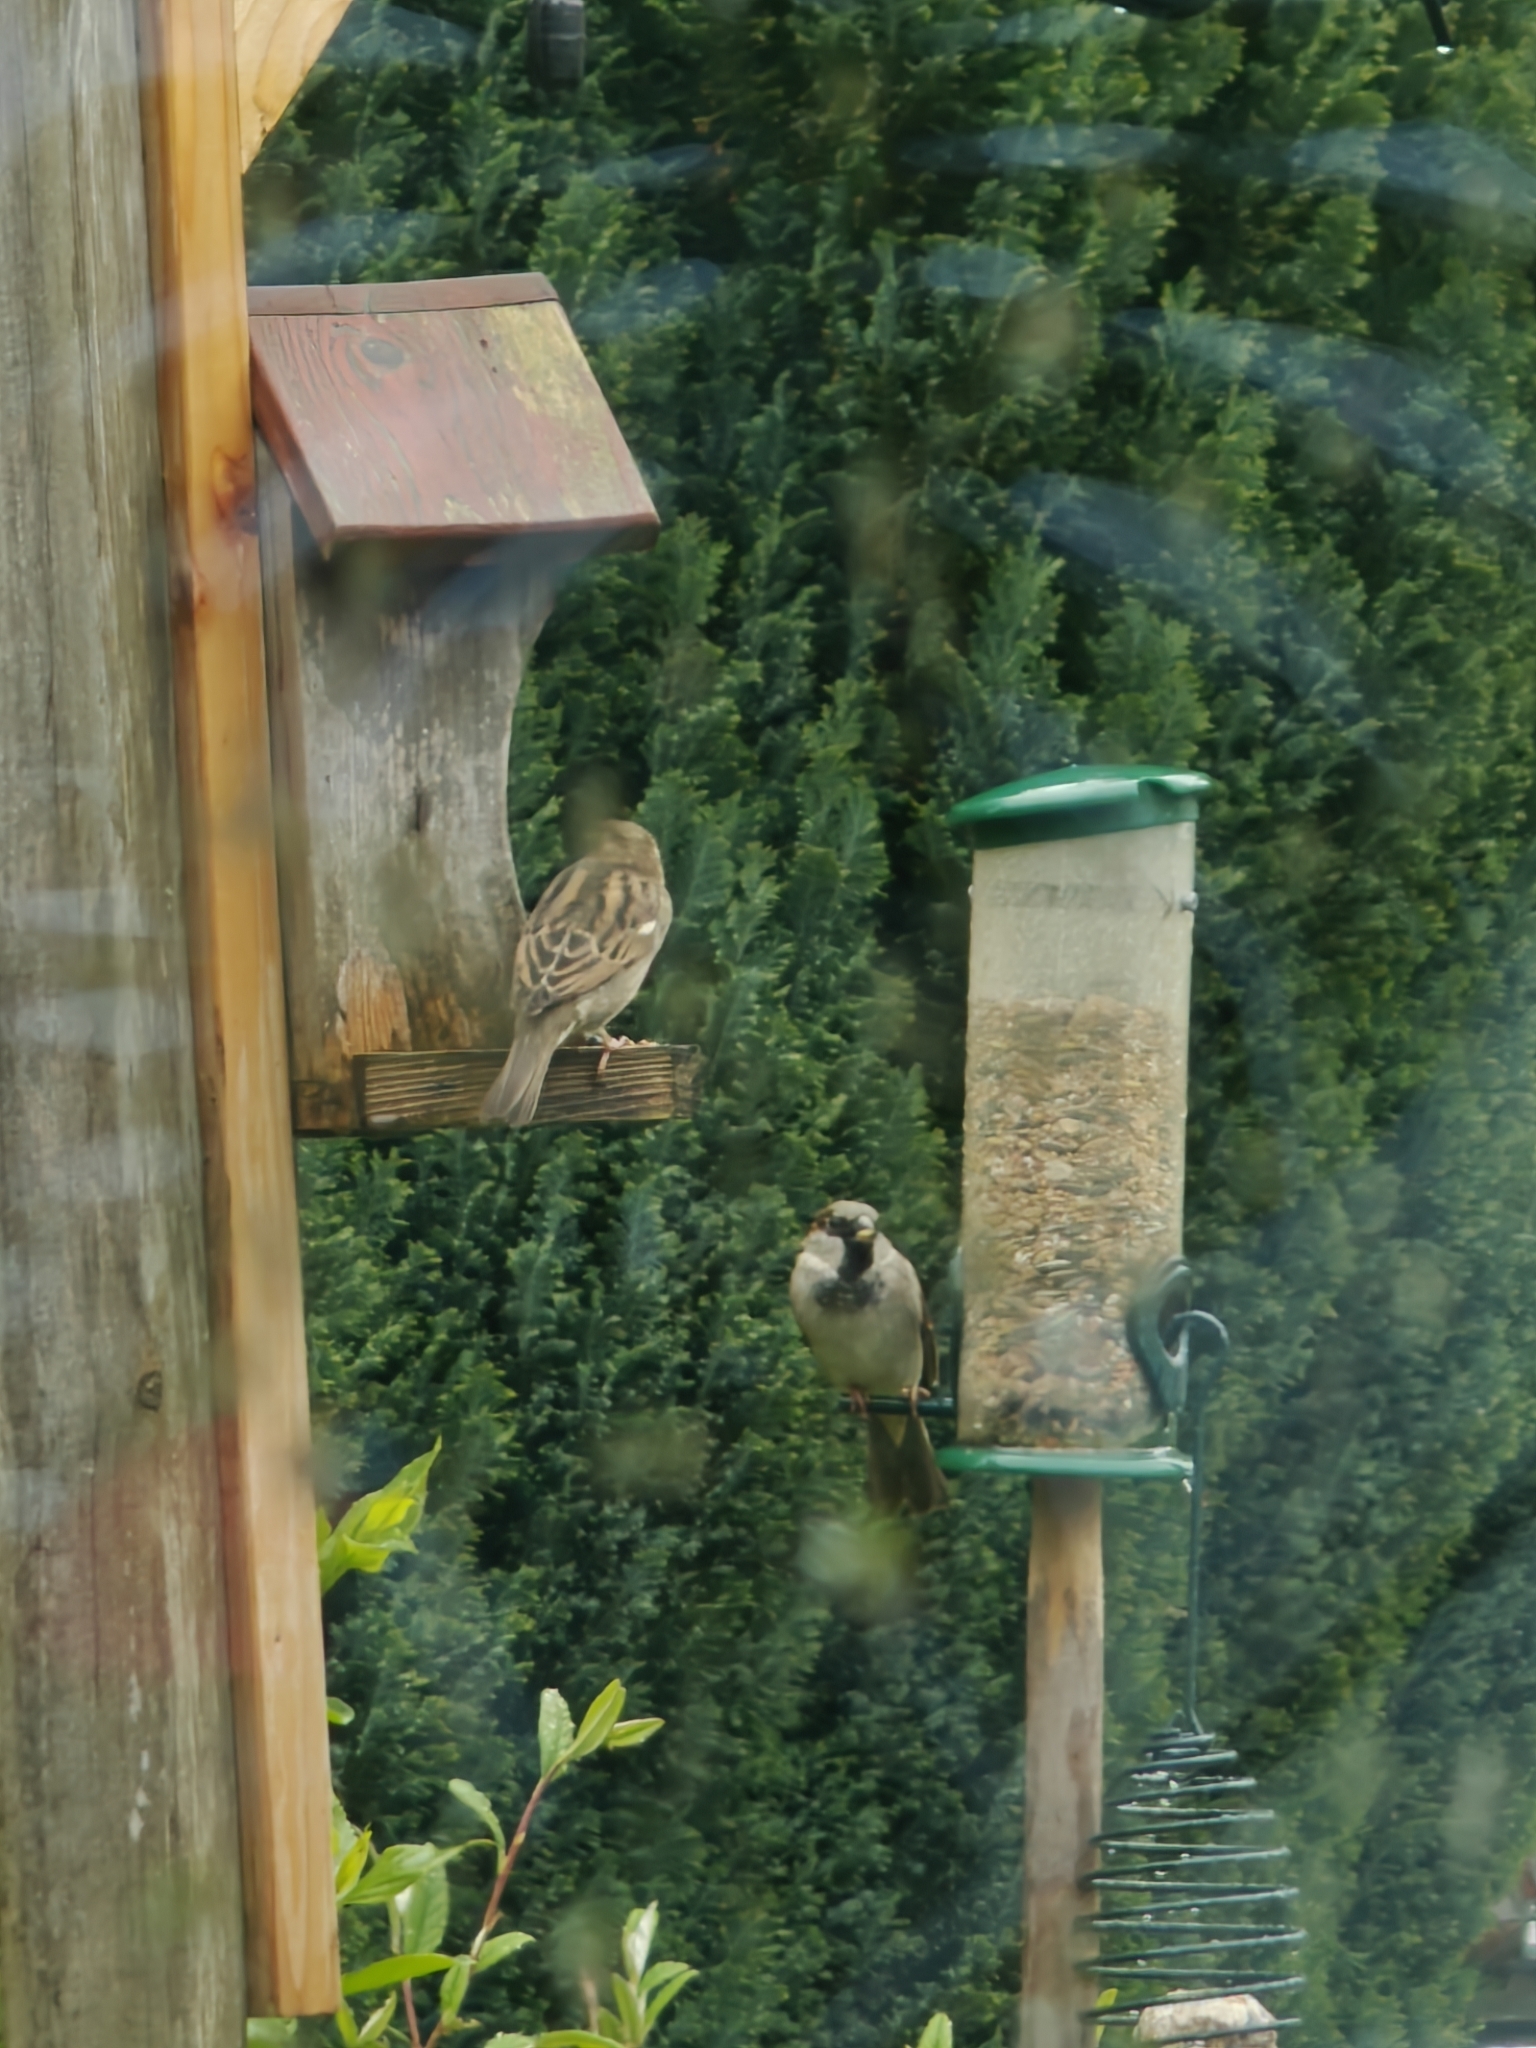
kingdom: Animalia
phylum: Chordata
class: Aves
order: Passeriformes
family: Passeridae
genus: Passer
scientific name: Passer domesticus
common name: House sparrow
